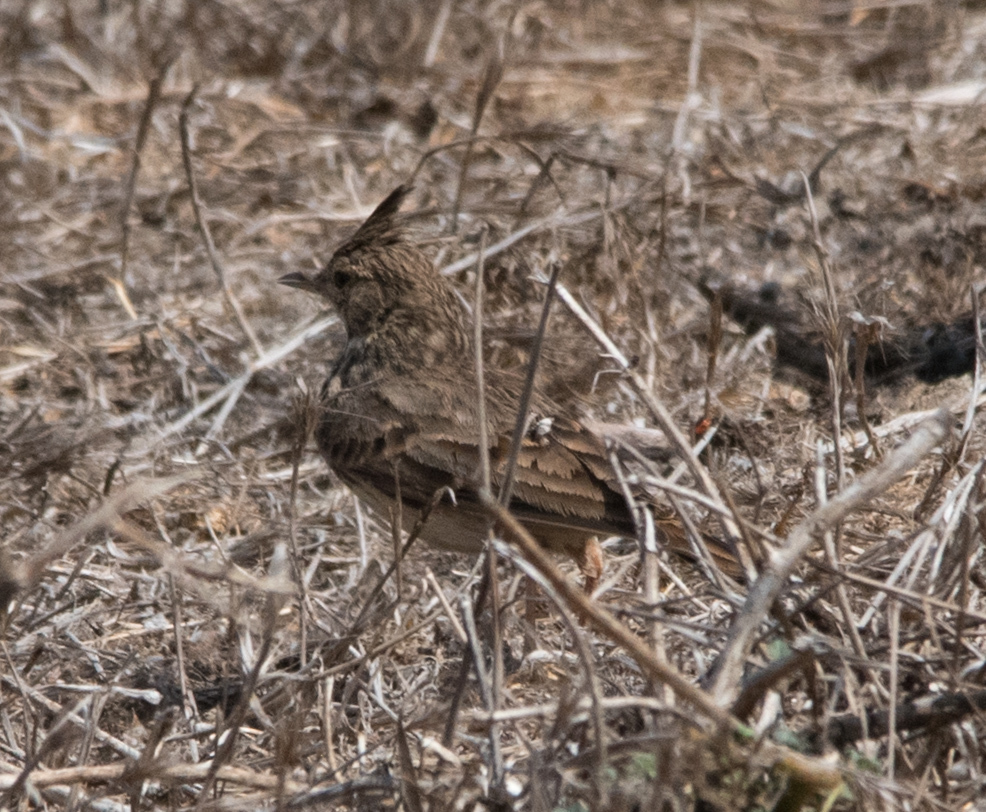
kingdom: Animalia
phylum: Chordata
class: Aves
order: Passeriformes
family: Alaudidae
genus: Galerida
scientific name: Galerida cristata
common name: Crested lark
